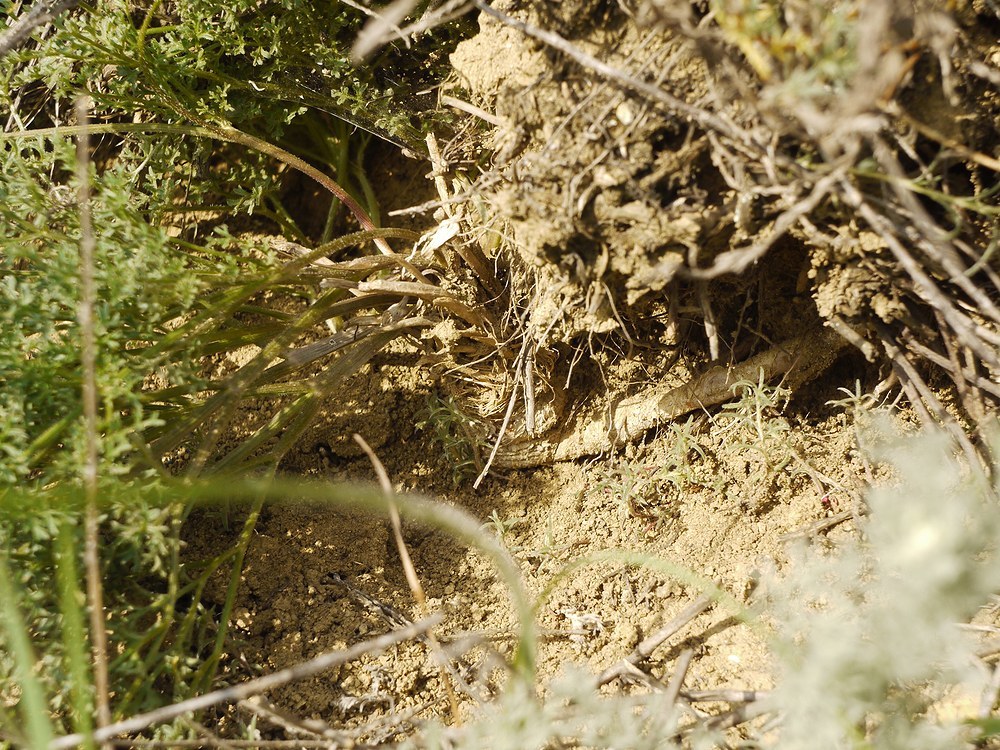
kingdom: Plantae
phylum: Tracheophyta
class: Magnoliopsida
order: Apiales
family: Apiaceae
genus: Ferula
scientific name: Ferula caspica
